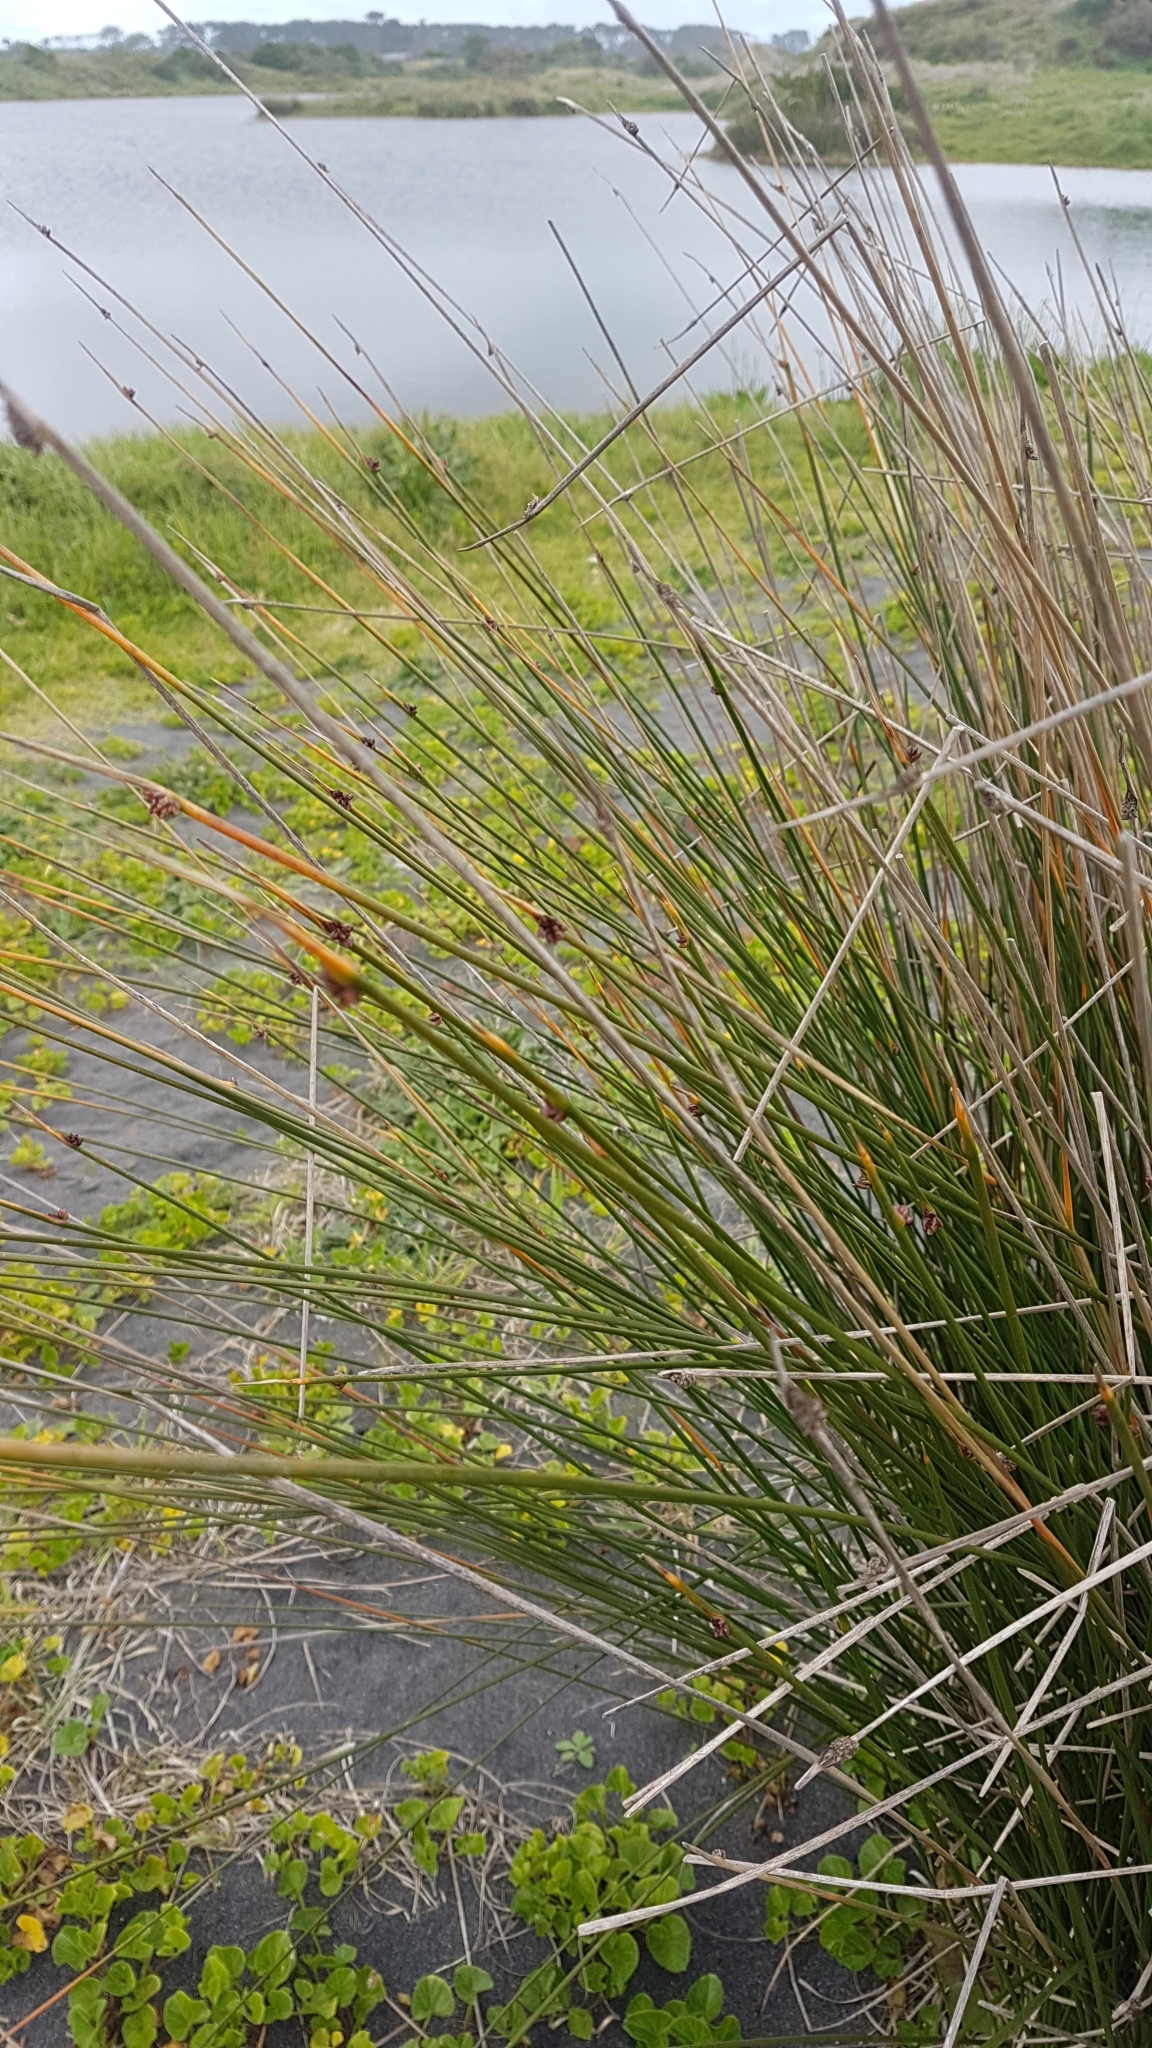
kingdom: Plantae
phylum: Tracheophyta
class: Liliopsida
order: Poales
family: Cyperaceae
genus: Ficinia
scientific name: Ficinia nodosa
